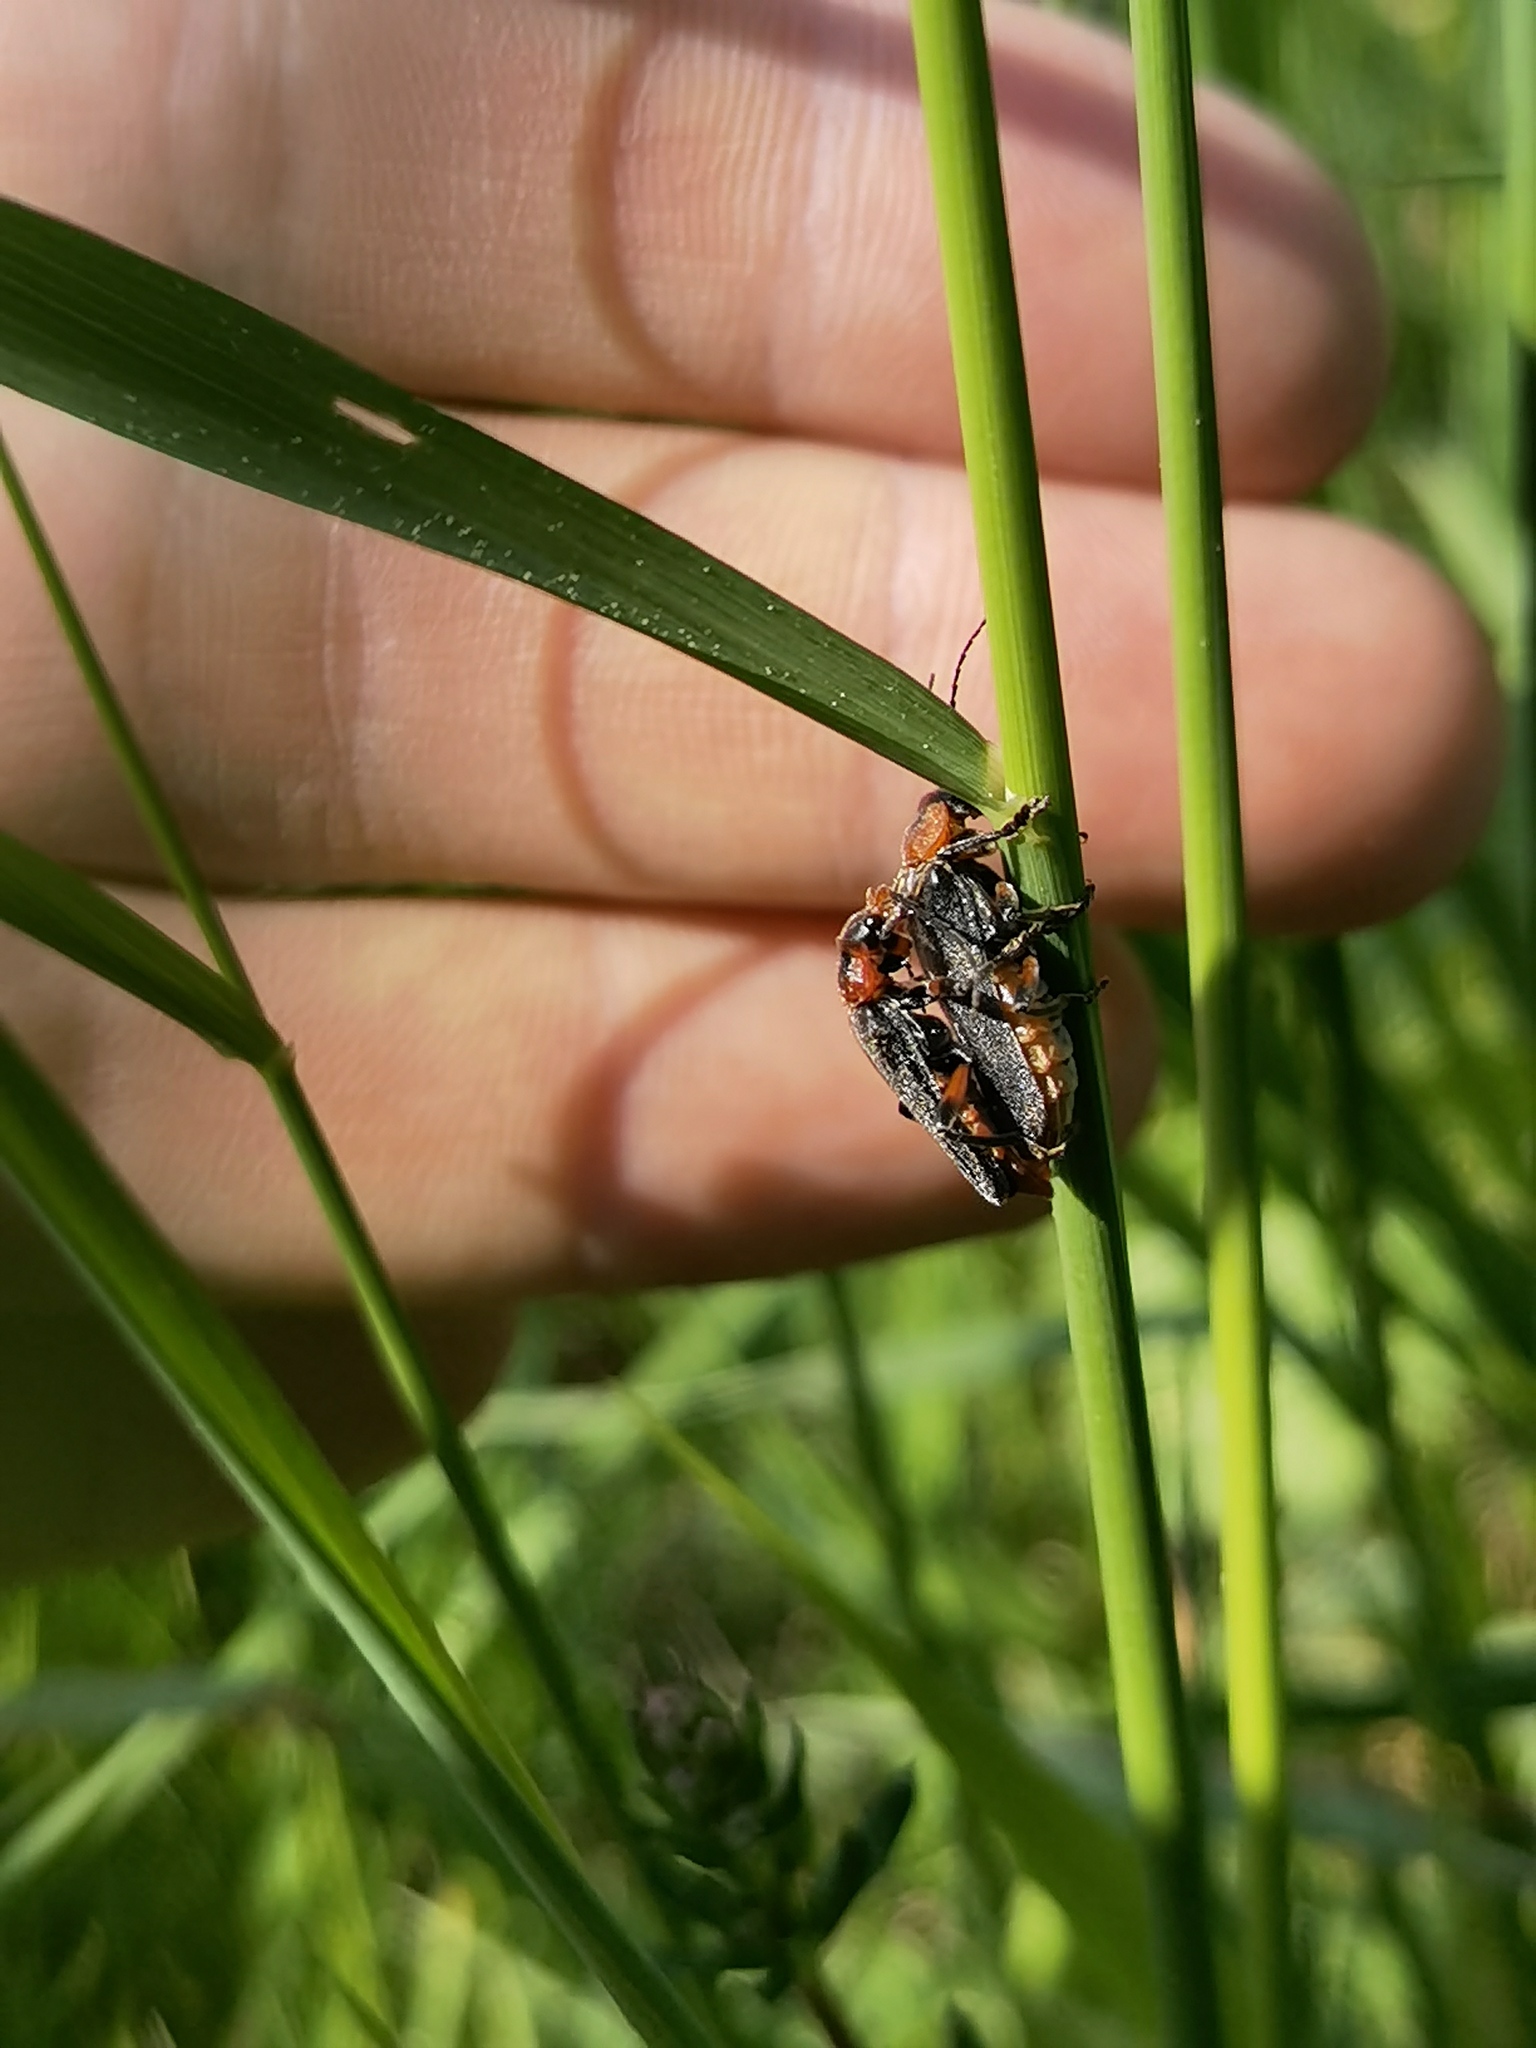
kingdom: Animalia
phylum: Arthropoda
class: Insecta
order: Coleoptera
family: Cantharidae
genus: Cantharis
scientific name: Cantharis rustica
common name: Soldier beetle
